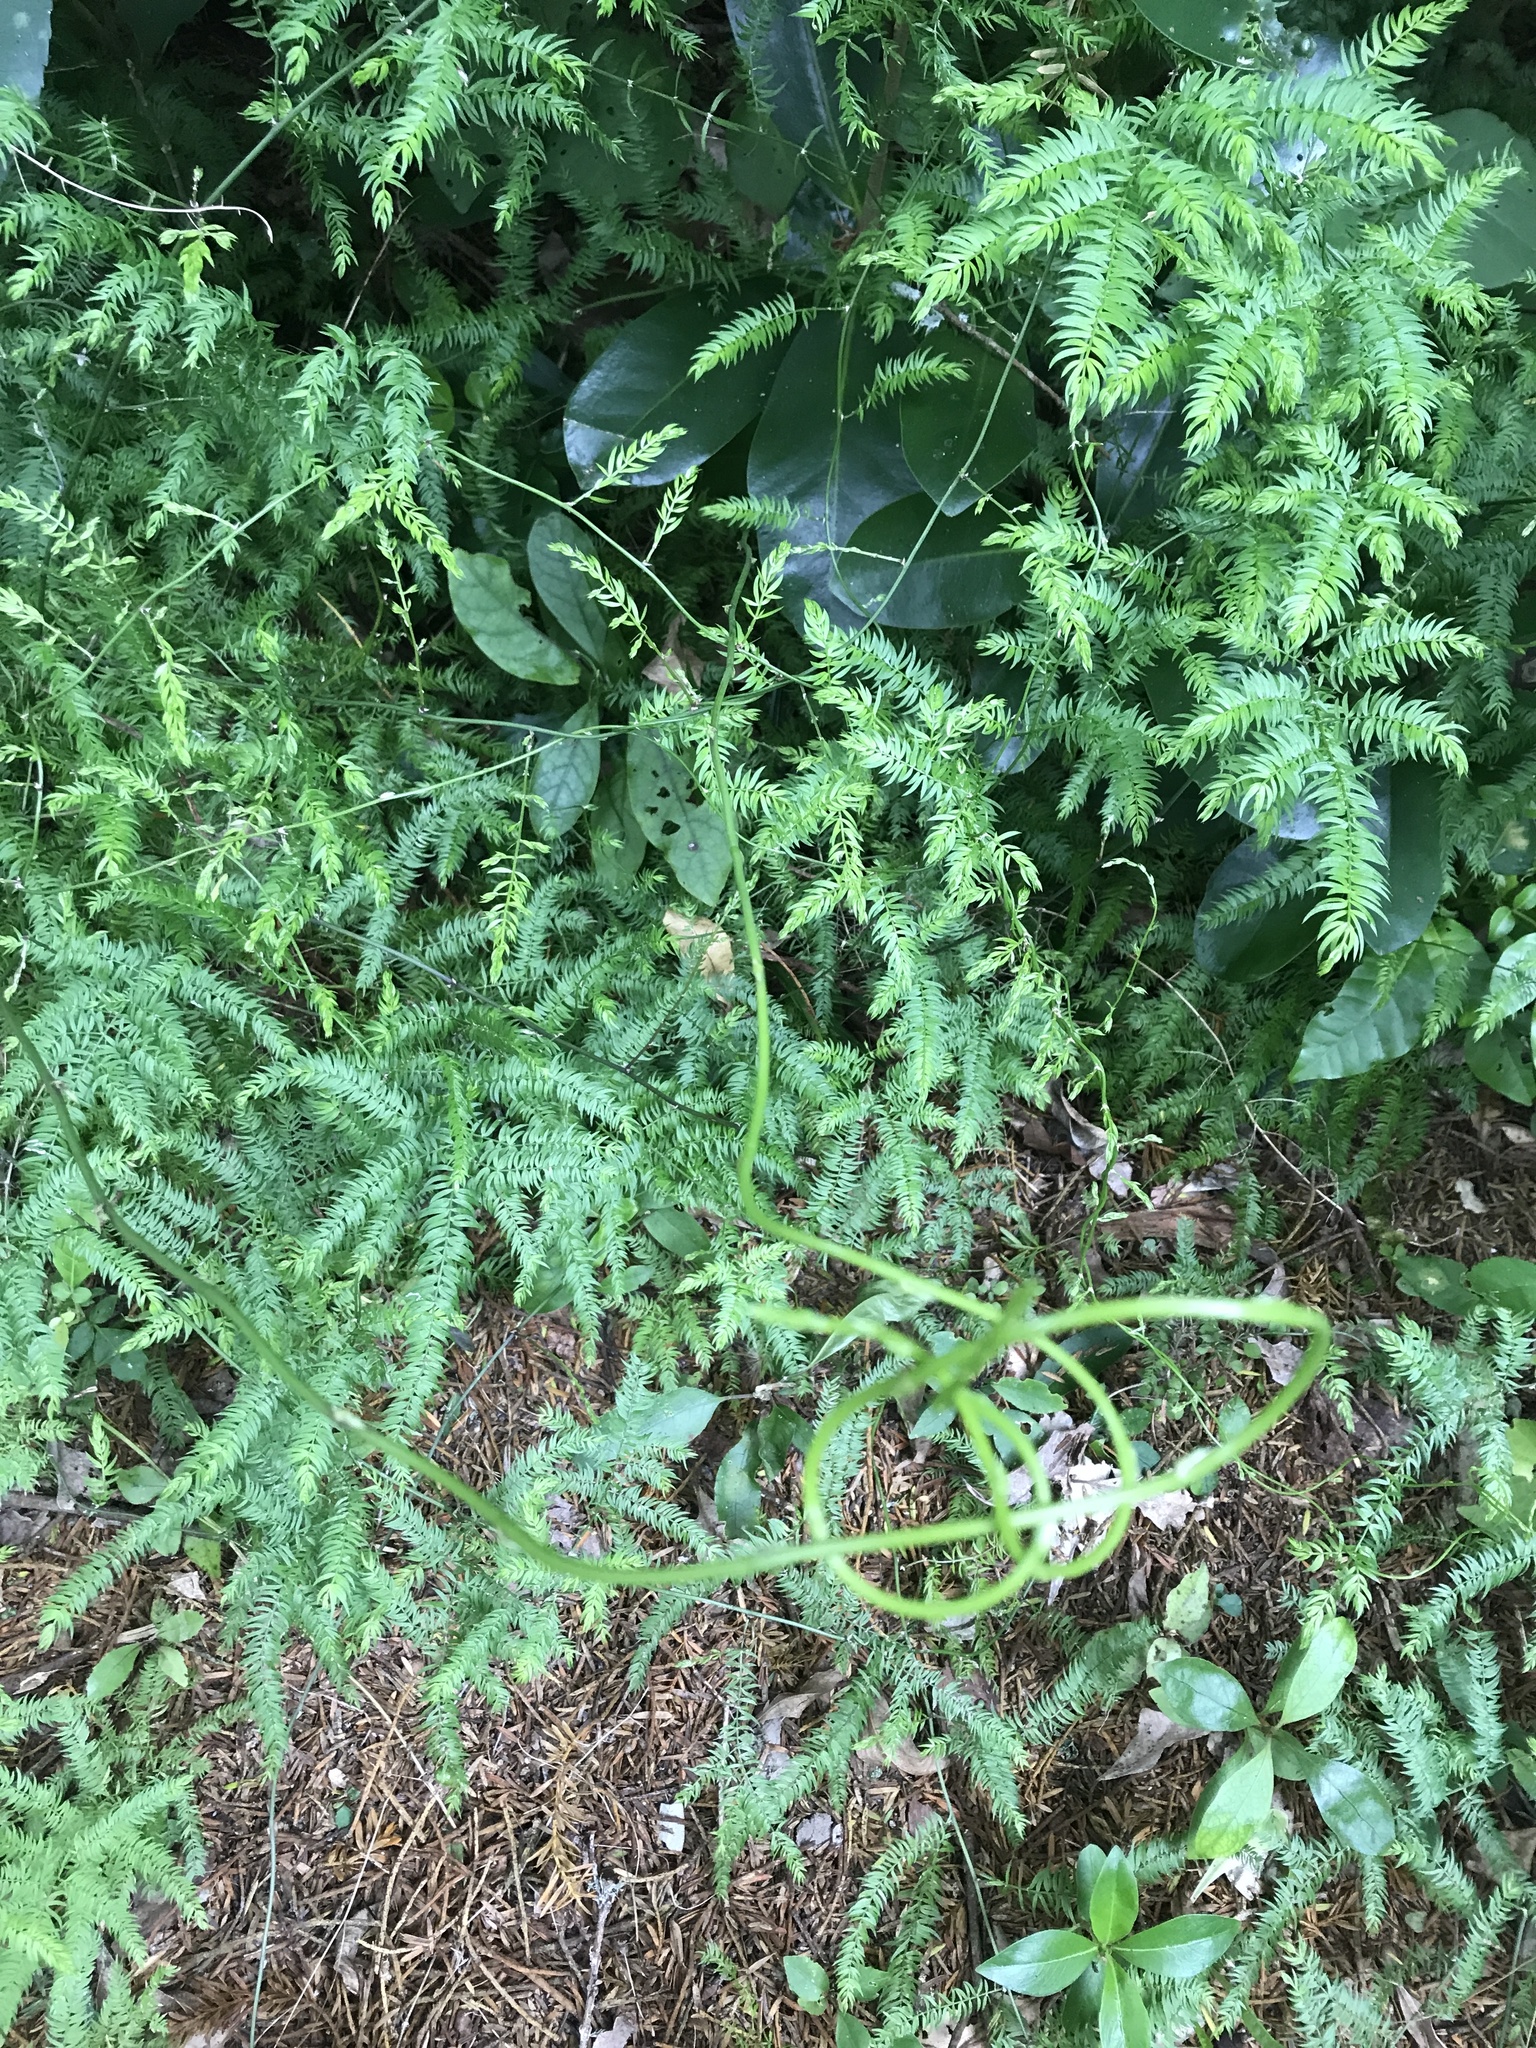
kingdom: Plantae
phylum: Tracheophyta
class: Liliopsida
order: Asparagales
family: Asparagaceae
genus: Asparagus
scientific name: Asparagus scandens
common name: Asparagus-fern
